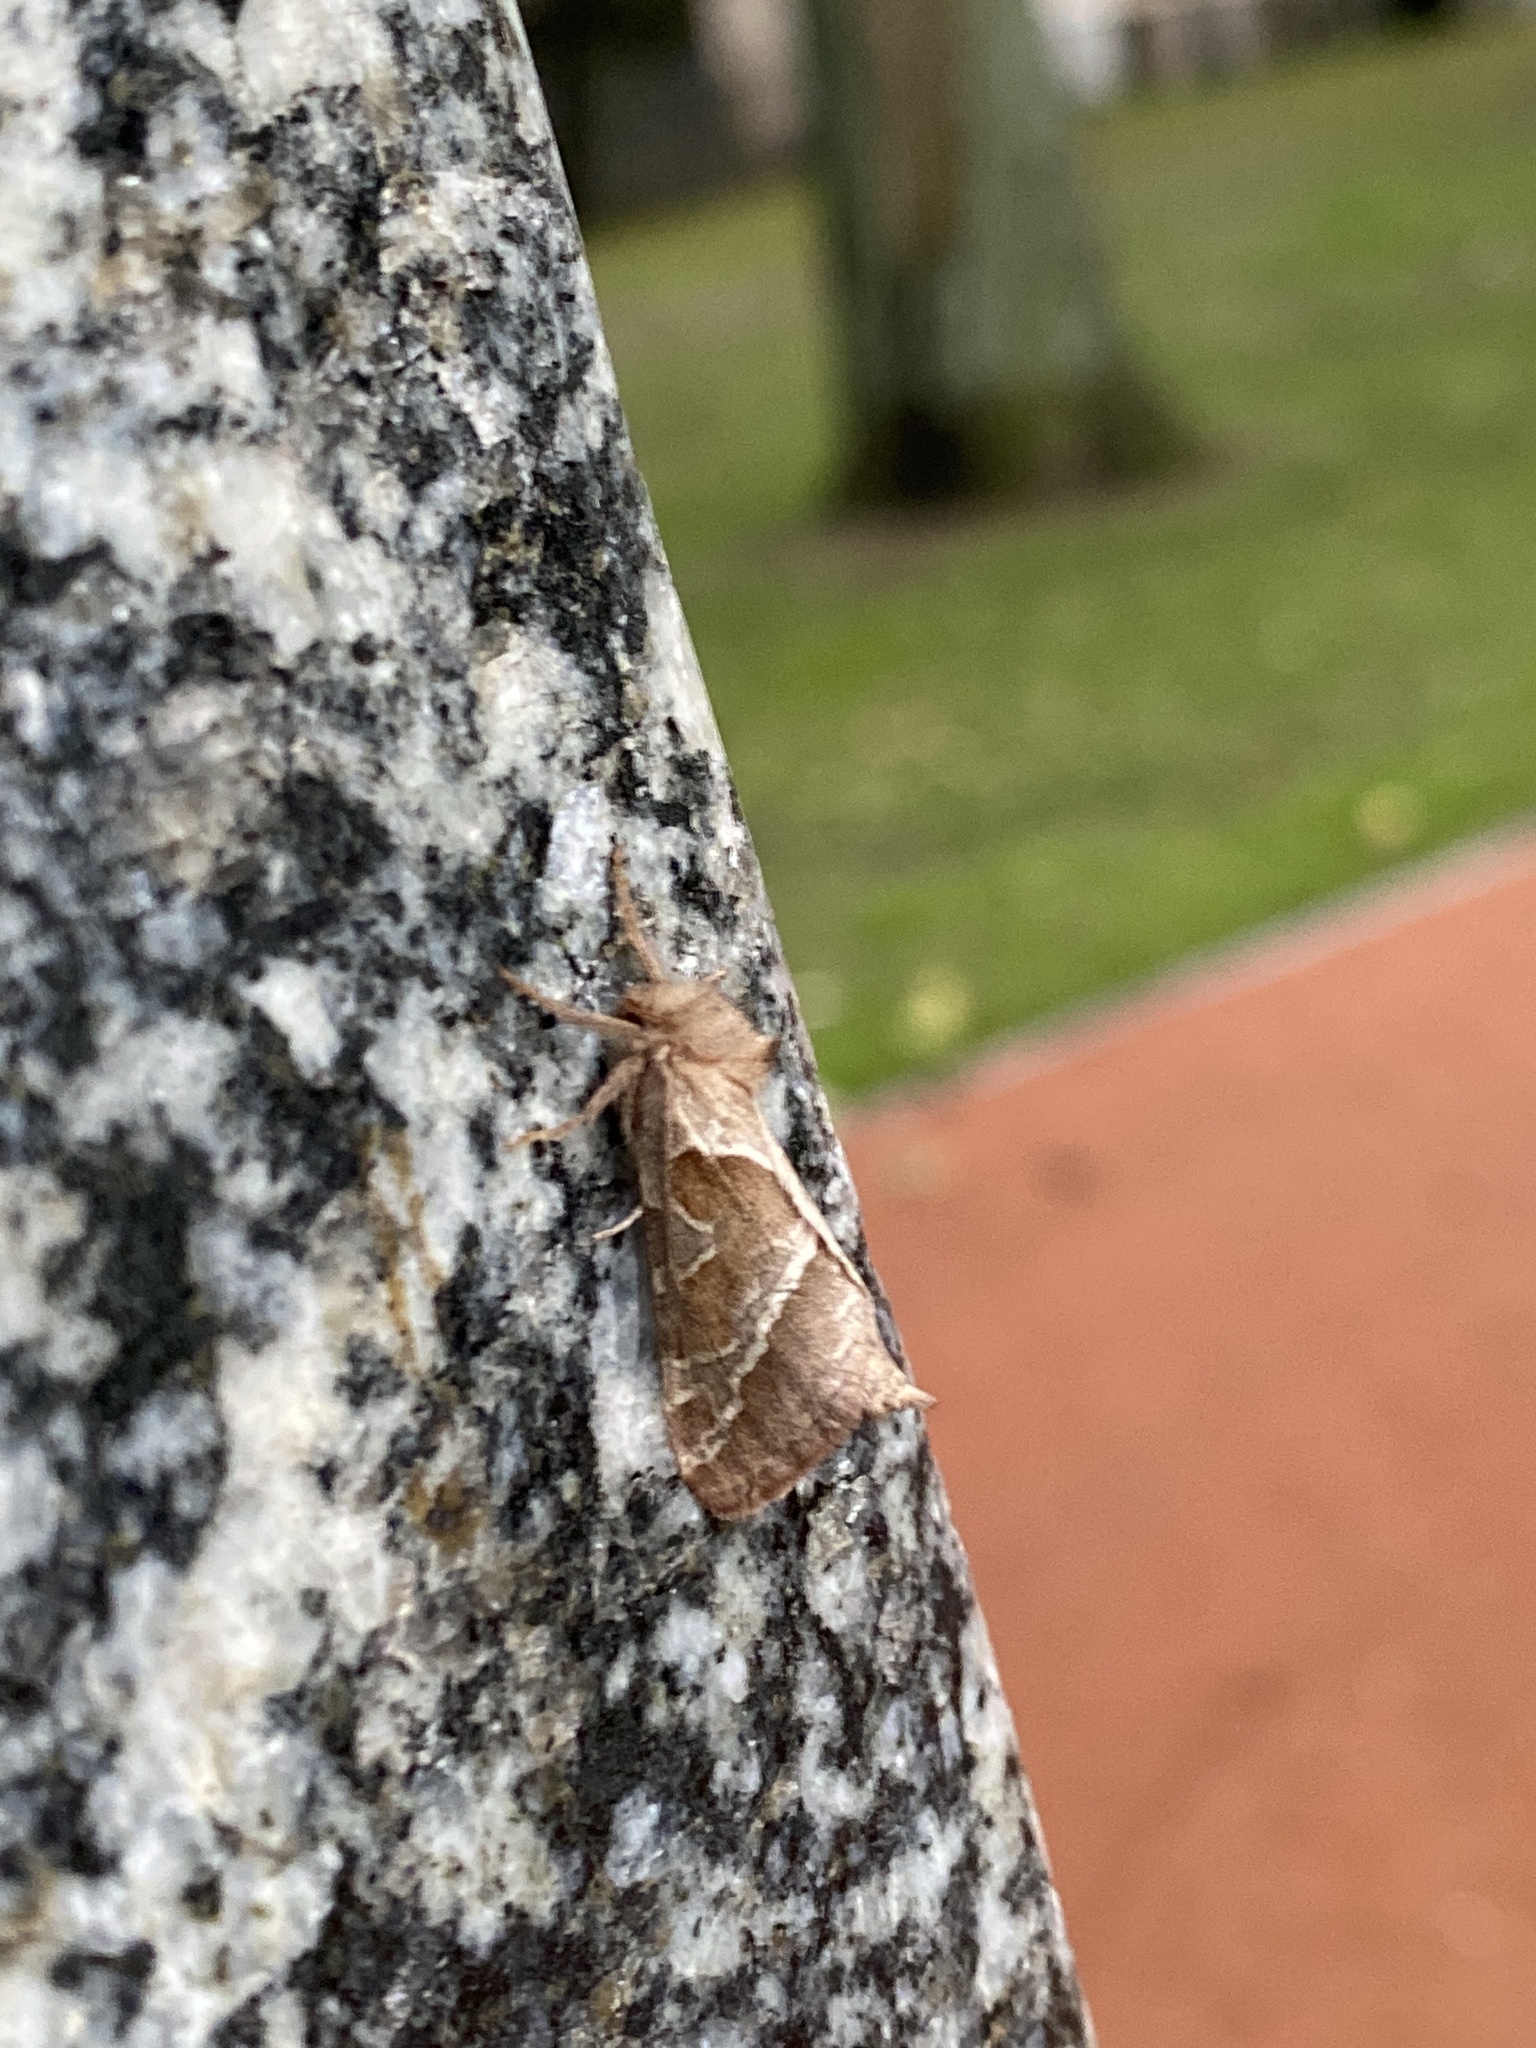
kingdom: Animalia
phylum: Arthropoda
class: Insecta
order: Lepidoptera
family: Hepialidae
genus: Triodia
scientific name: Triodia sylvina
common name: Orange swift
